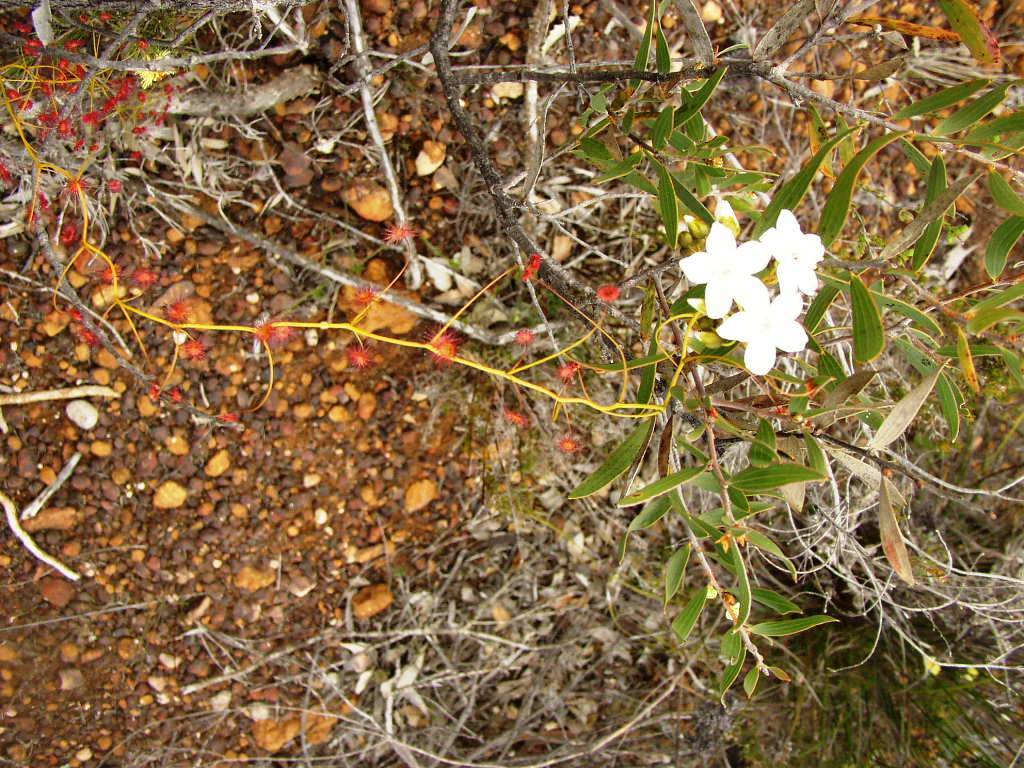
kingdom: Plantae
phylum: Tracheophyta
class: Magnoliopsida
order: Caryophyllales
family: Droseraceae
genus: Drosera
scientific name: Drosera pallida
